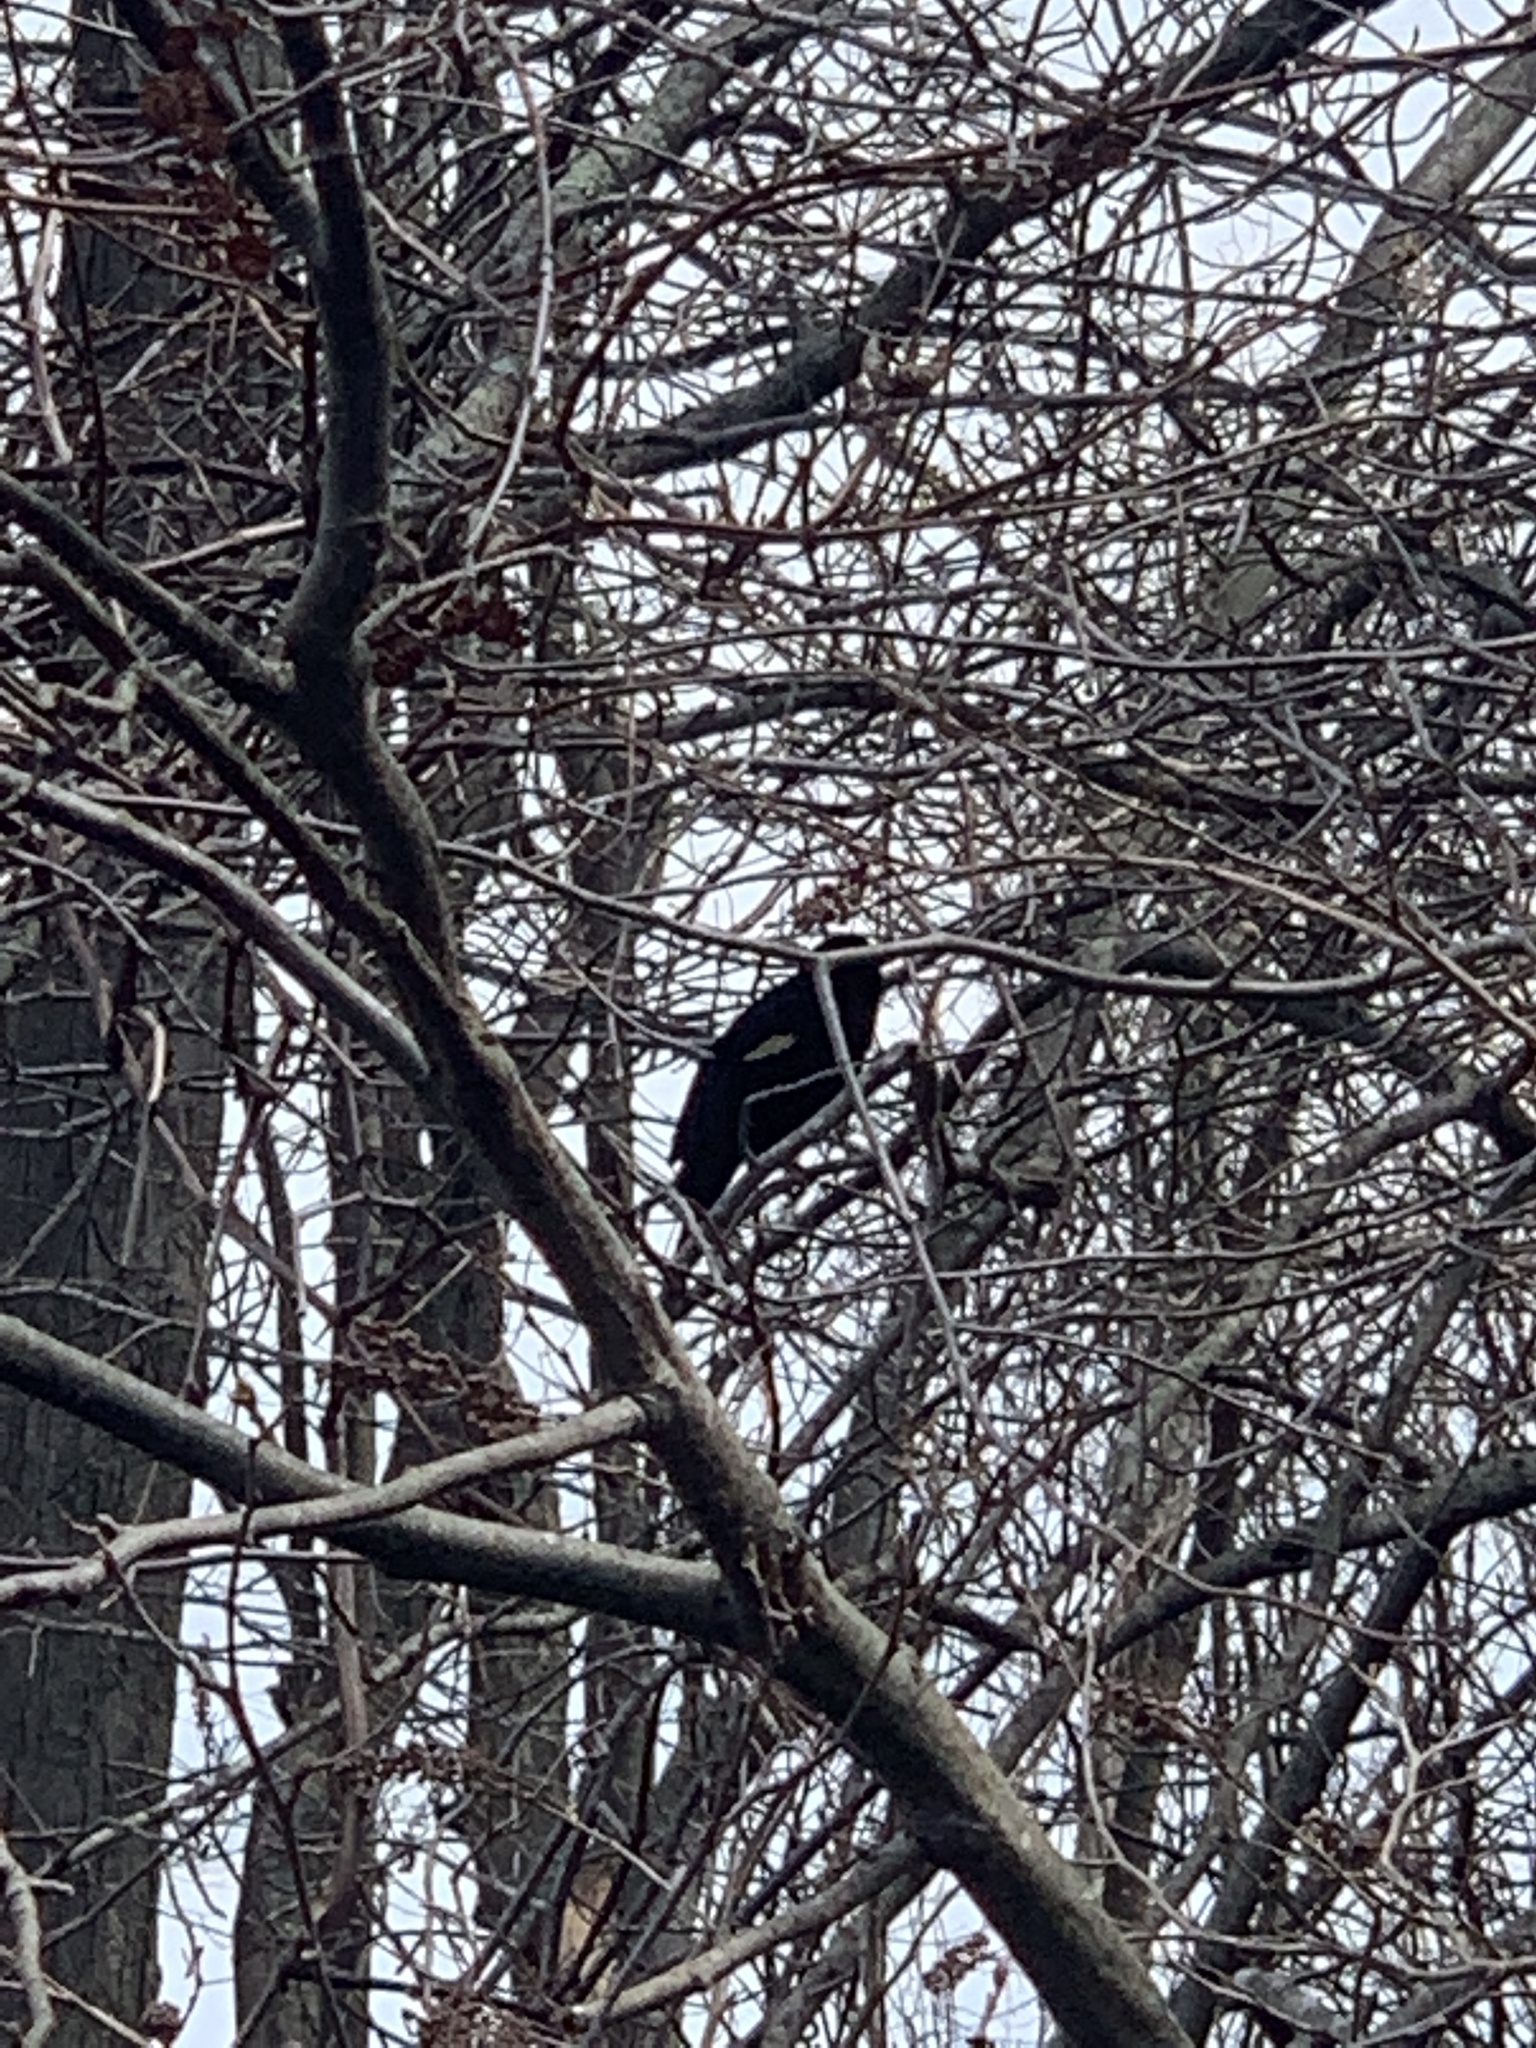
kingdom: Animalia
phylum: Chordata
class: Aves
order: Passeriformes
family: Icteridae
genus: Agelaius
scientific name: Agelaius phoeniceus
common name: Red-winged blackbird
